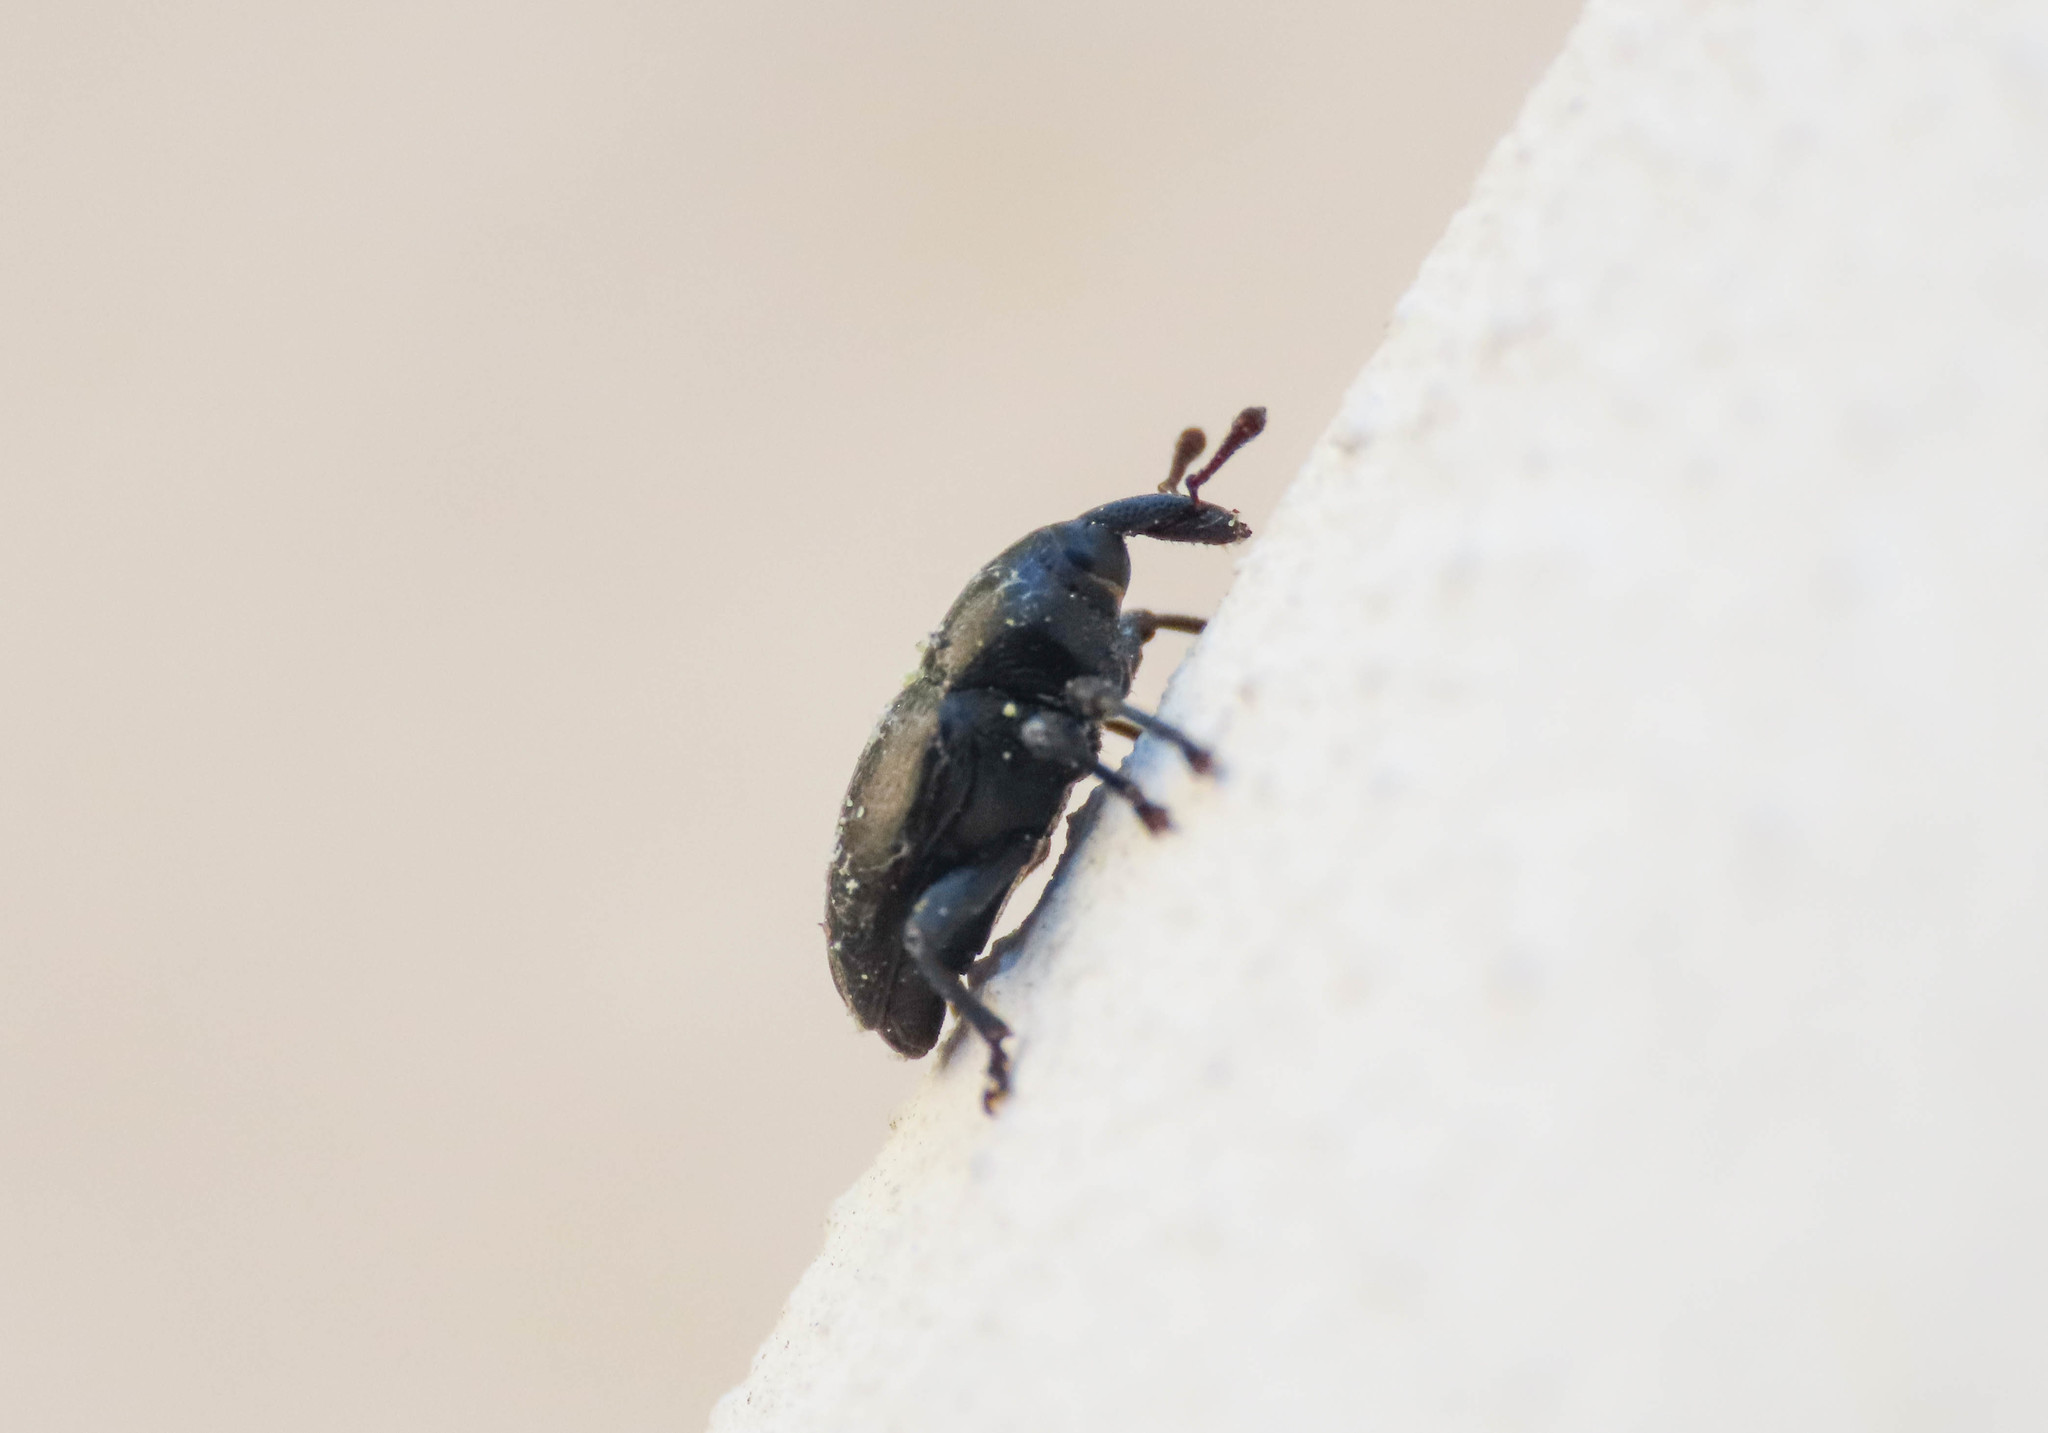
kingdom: Animalia
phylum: Arthropoda
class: Insecta
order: Coleoptera
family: Curculionidae
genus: Malvaevora
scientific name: Malvaevora timida
